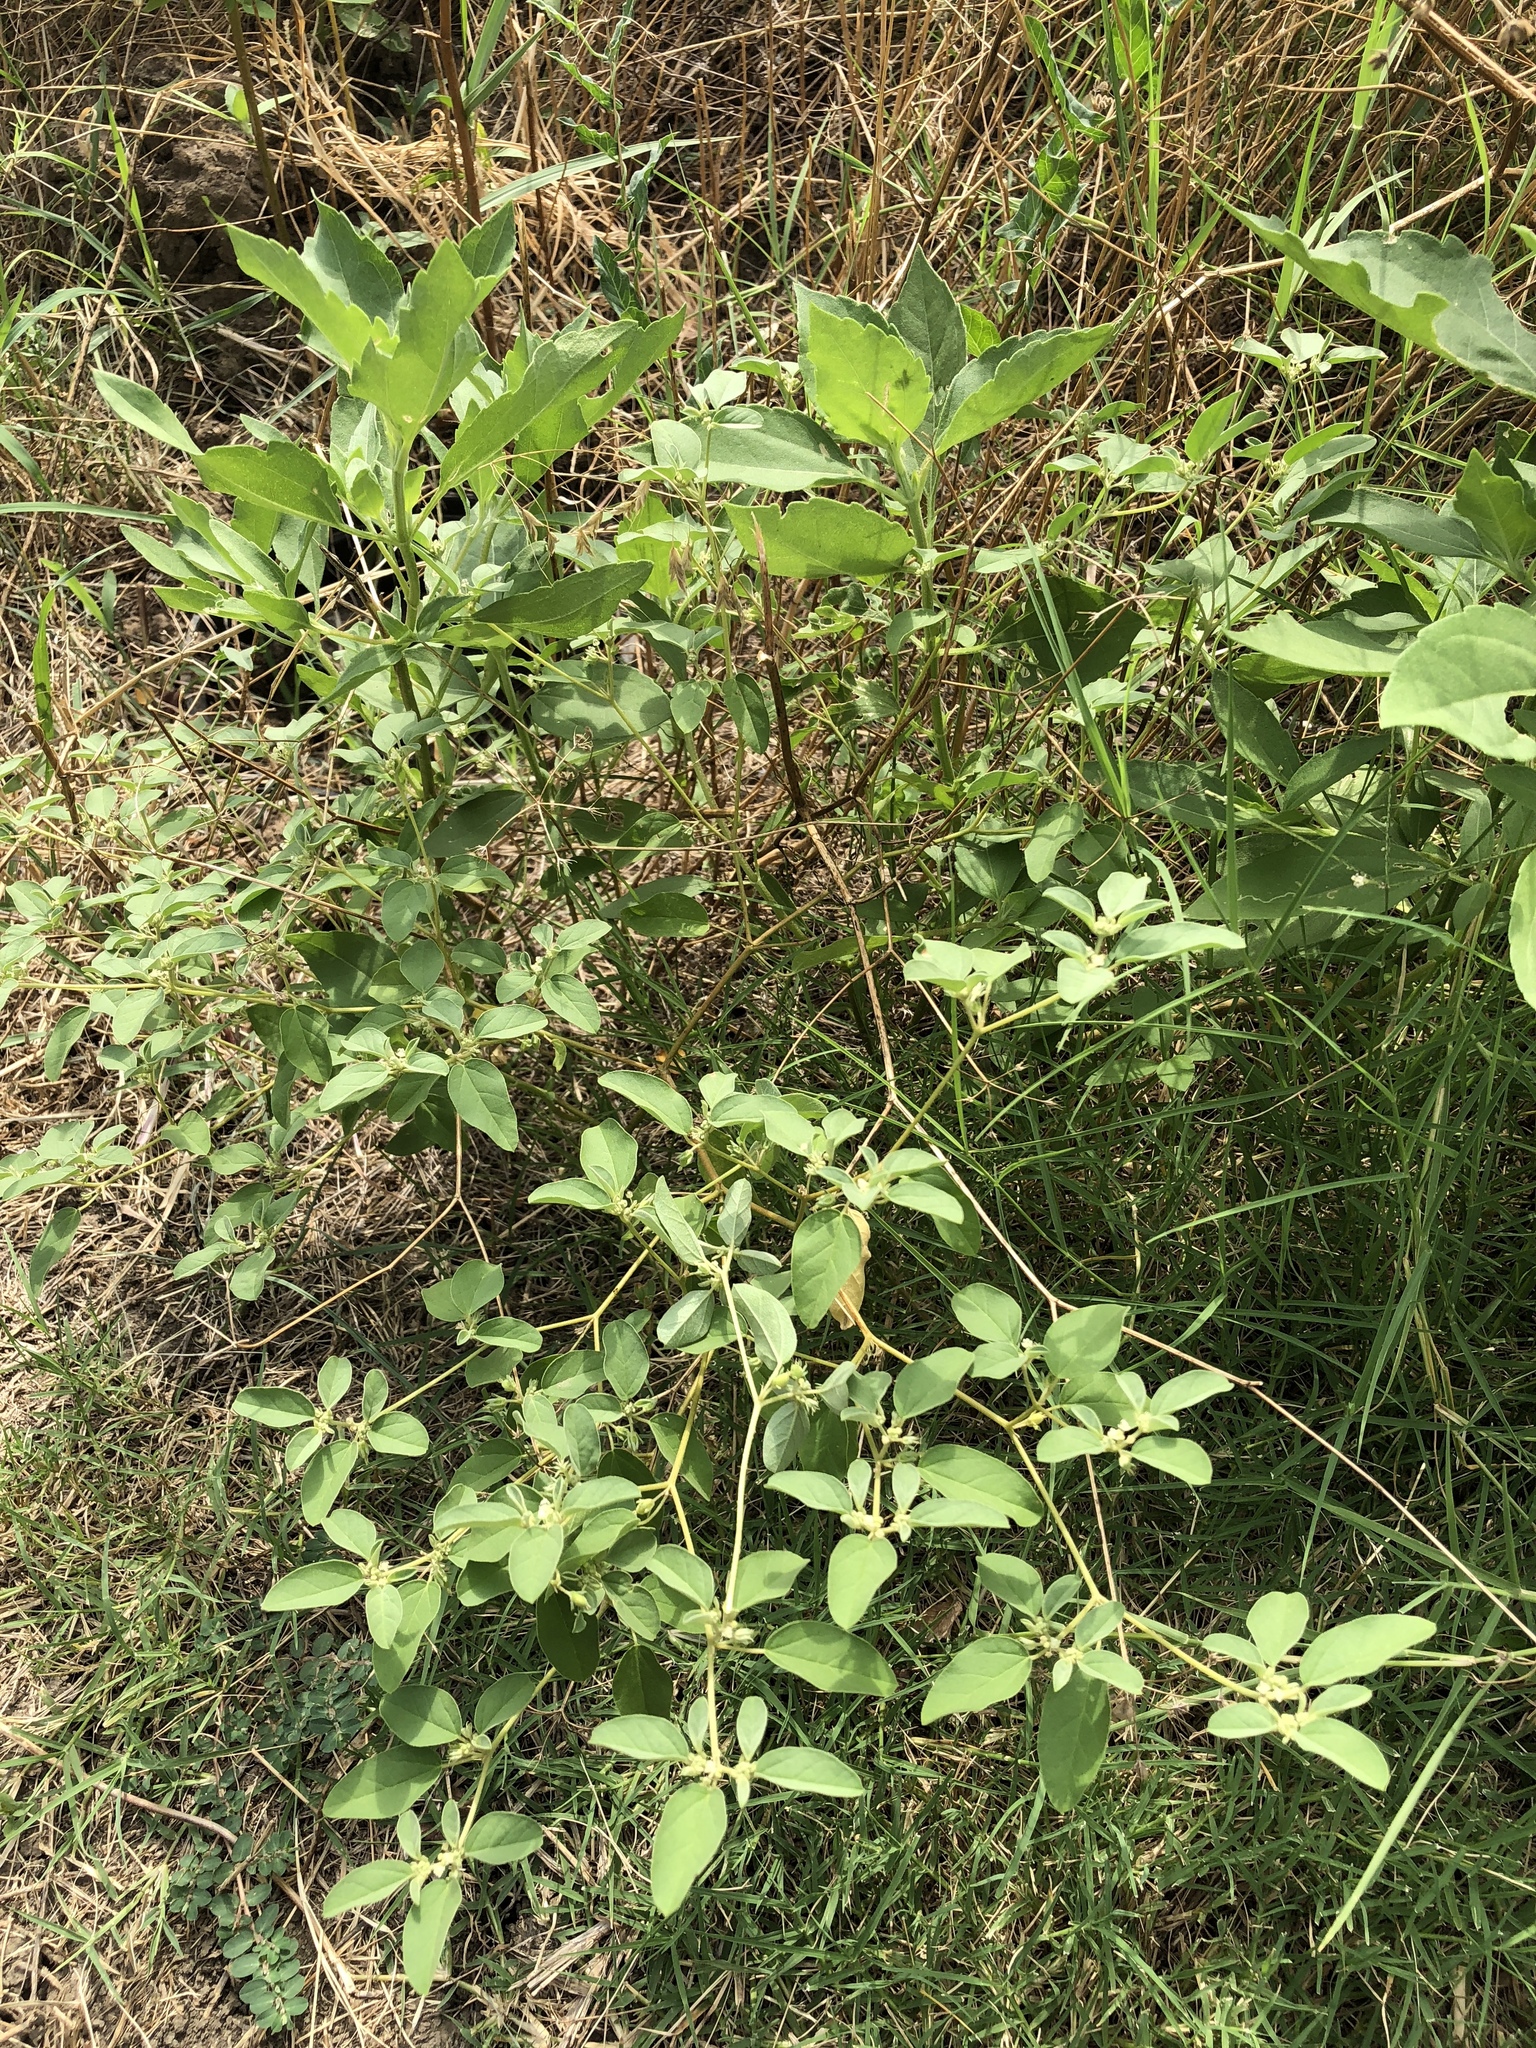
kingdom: Plantae
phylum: Tracheophyta
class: Magnoliopsida
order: Malpighiales
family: Euphorbiaceae
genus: Croton
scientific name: Croton monanthogynus
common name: One-seed croton
